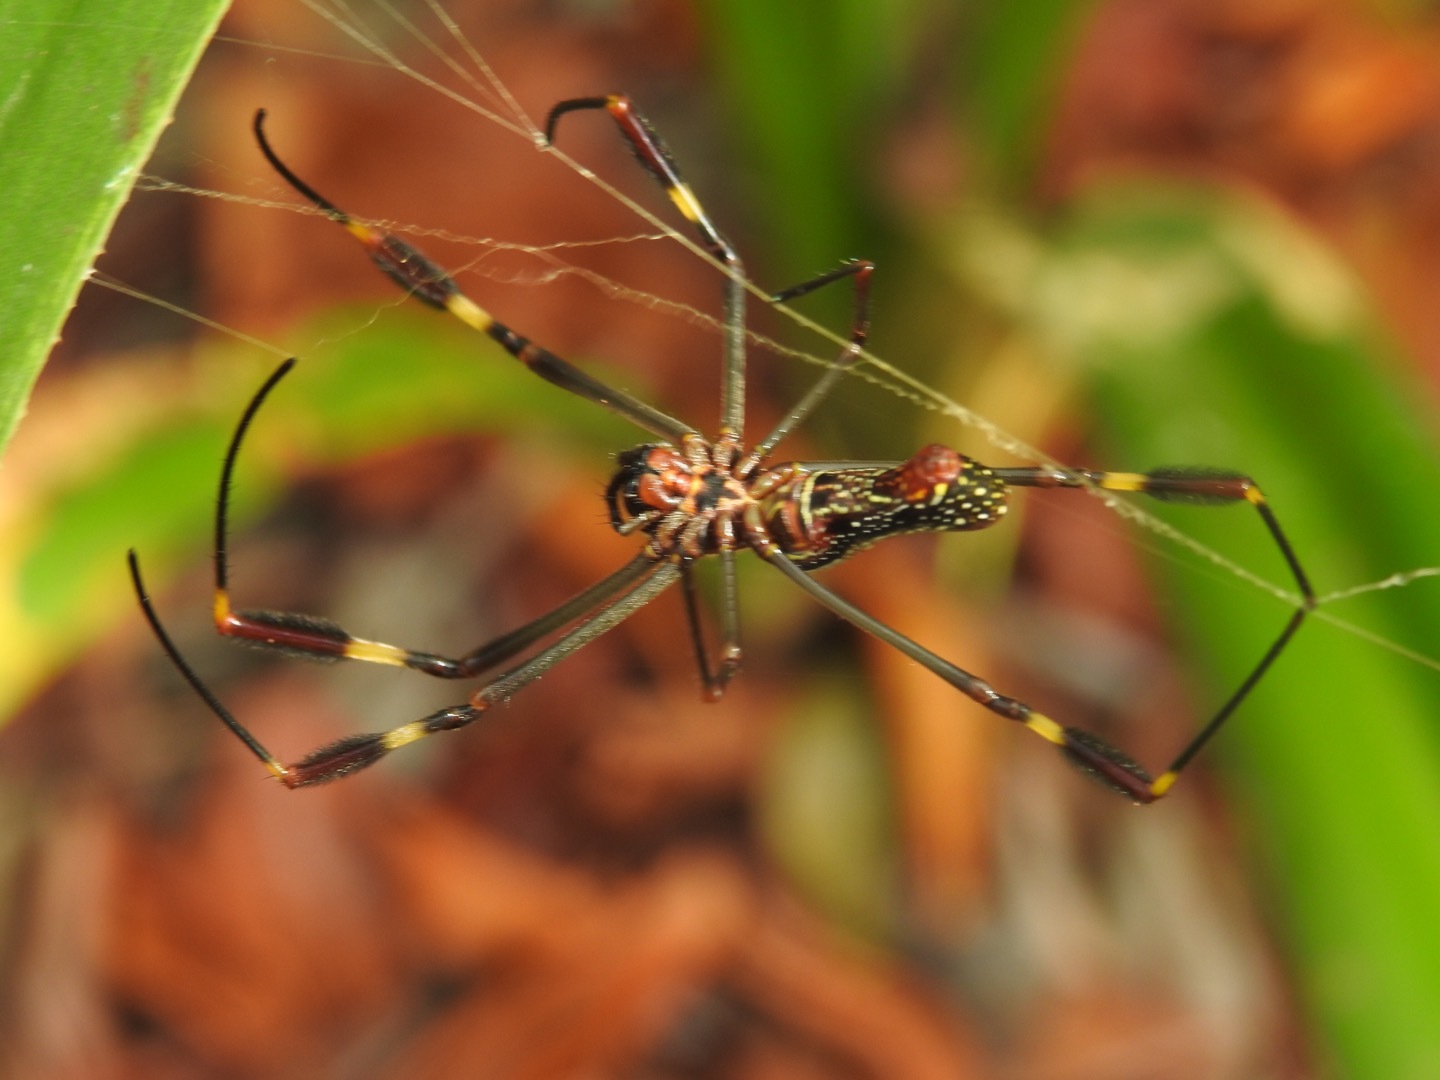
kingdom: Animalia
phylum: Arthropoda
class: Arachnida
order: Araneae
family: Araneidae
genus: Trichonephila
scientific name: Trichonephila clavipes
